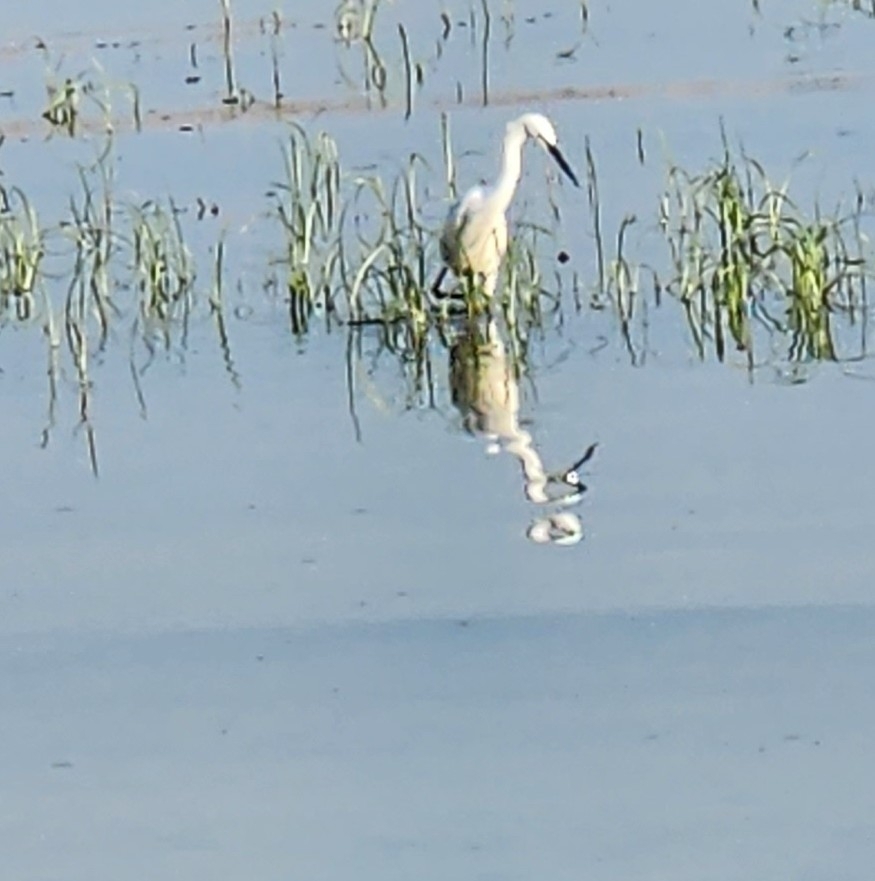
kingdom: Animalia
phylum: Chordata
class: Aves
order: Pelecaniformes
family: Ardeidae
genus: Egretta
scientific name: Egretta garzetta
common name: Little egret
